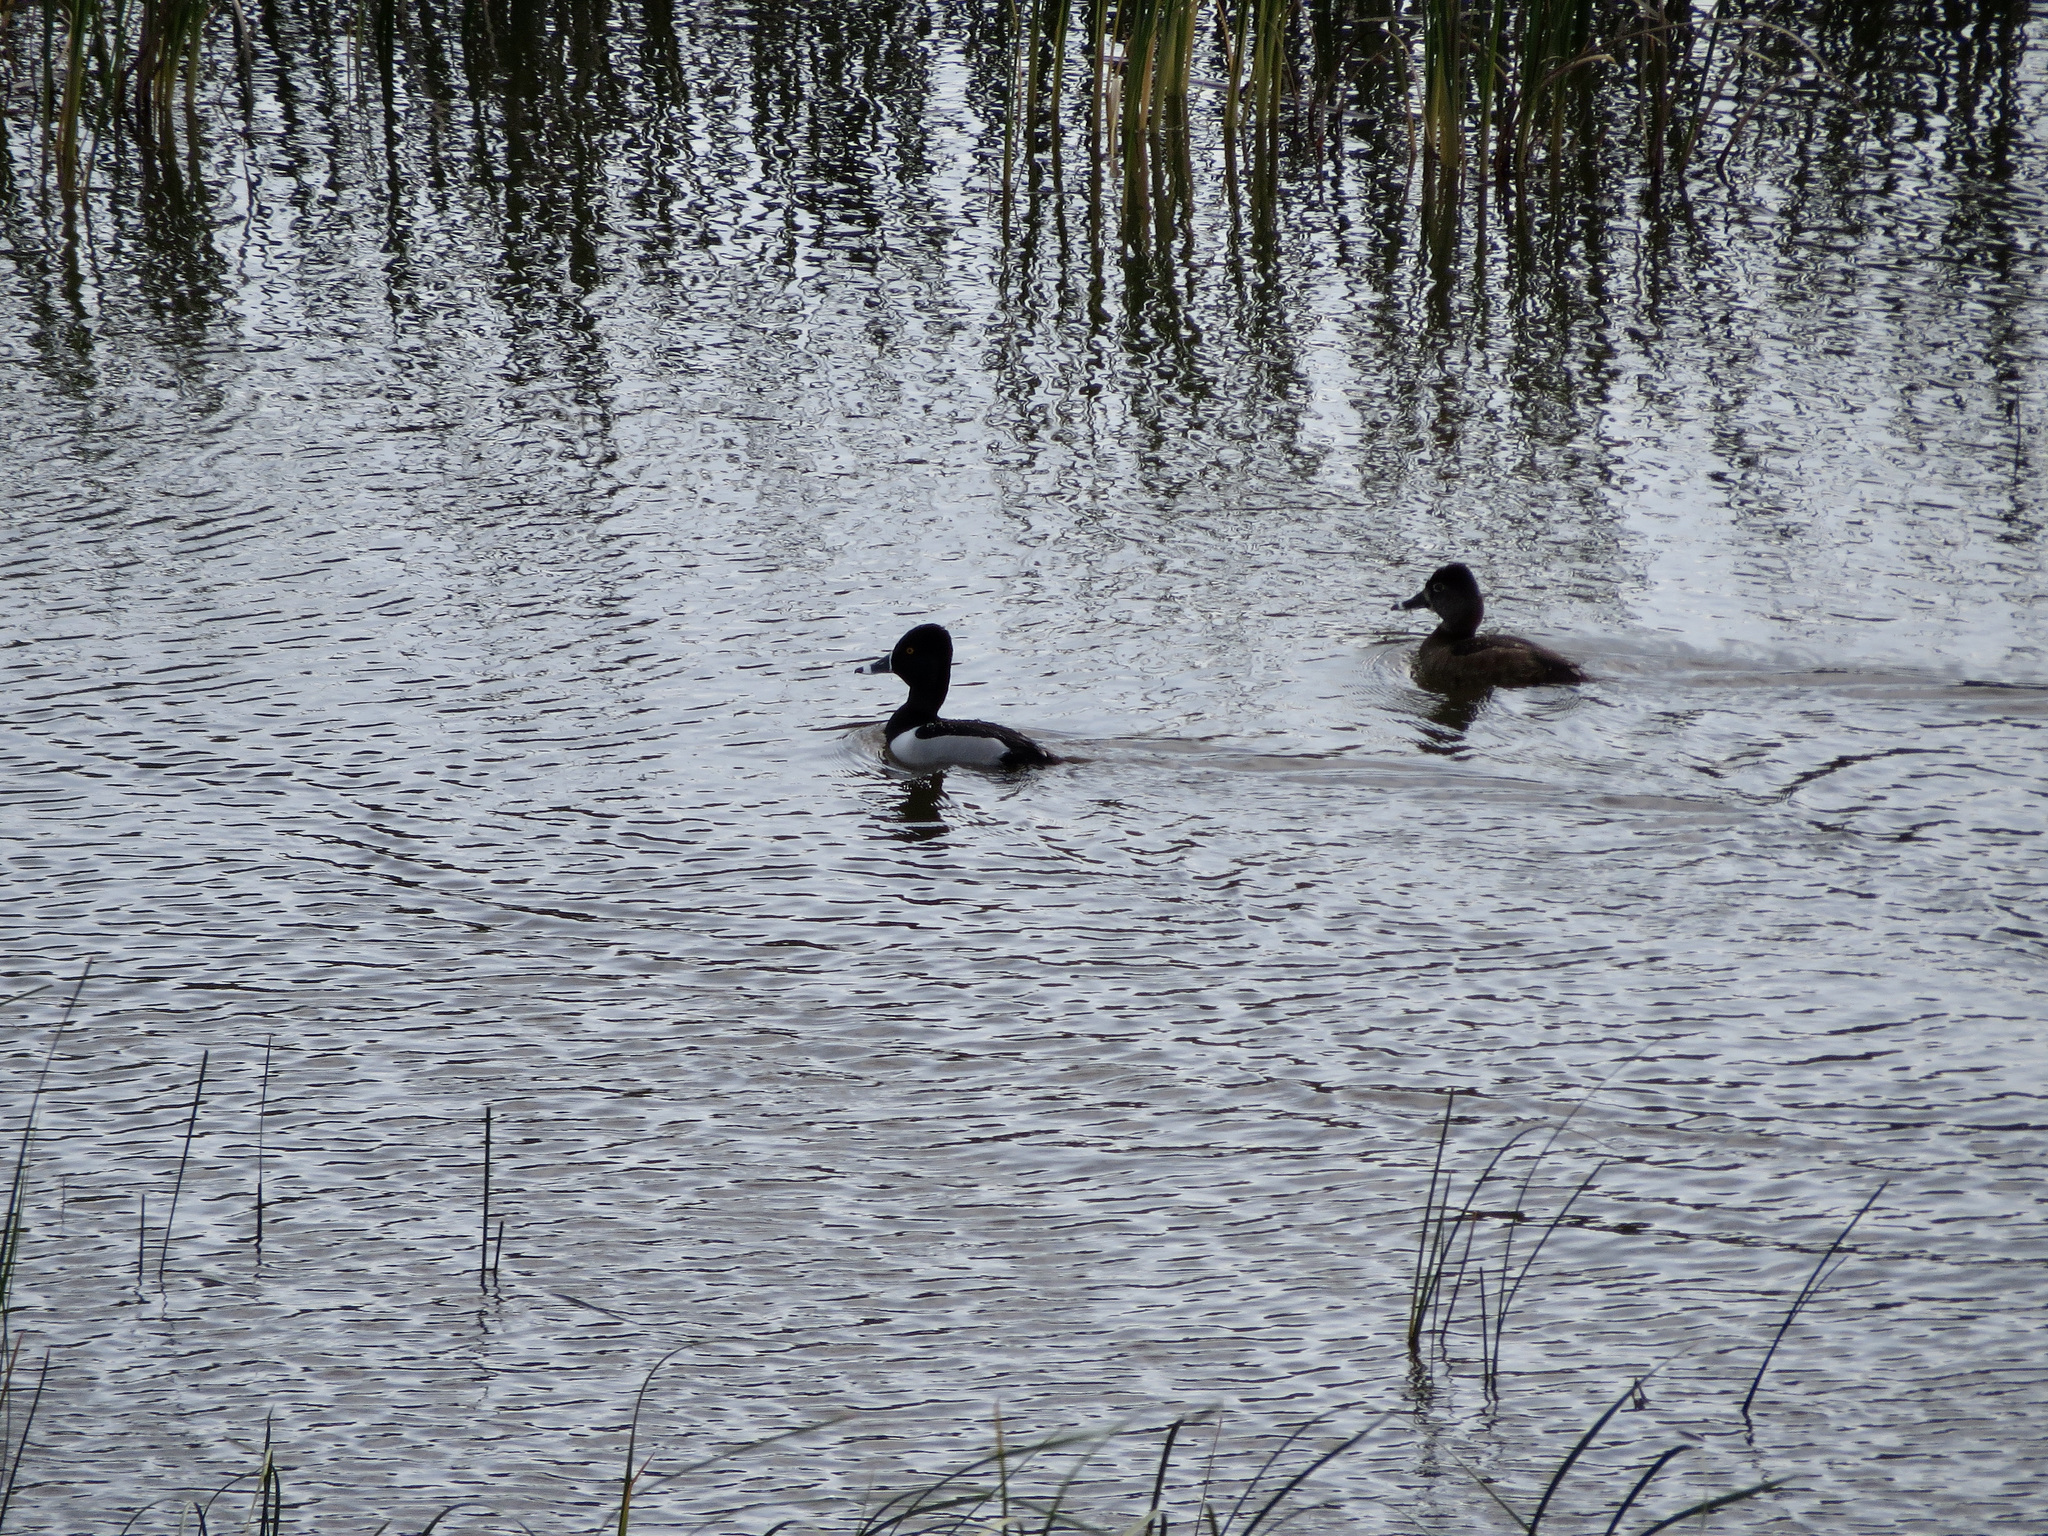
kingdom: Animalia
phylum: Chordata
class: Aves
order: Anseriformes
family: Anatidae
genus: Aythya
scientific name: Aythya collaris
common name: Ring-necked duck
